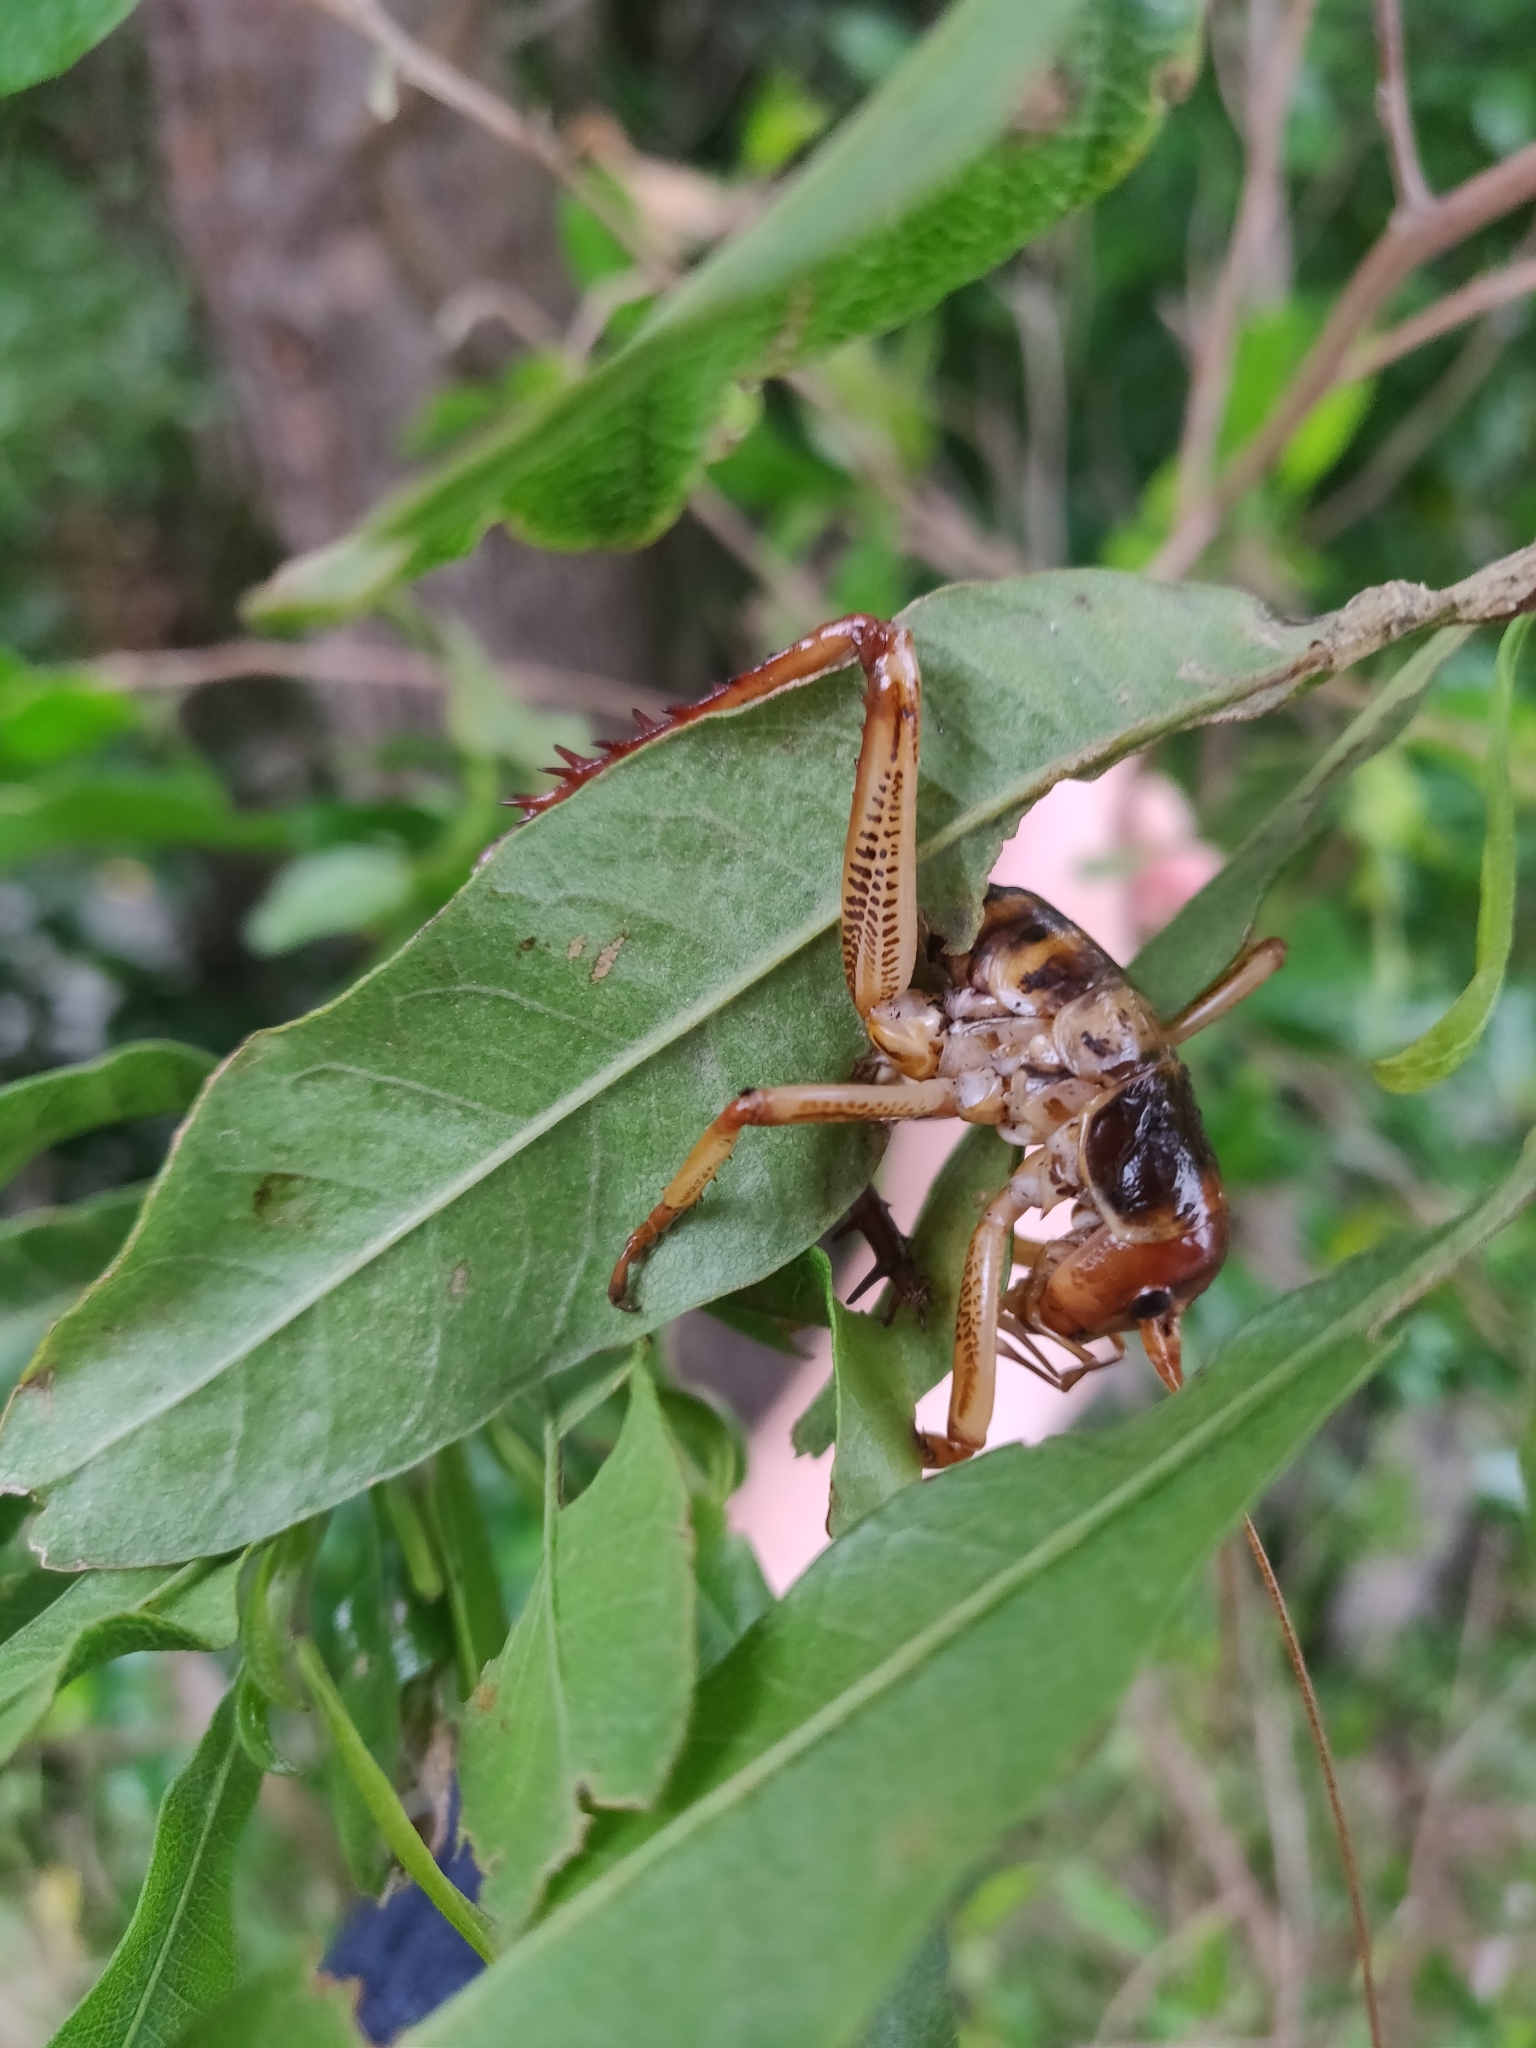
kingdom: Animalia
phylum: Arthropoda
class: Insecta
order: Orthoptera
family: Anostostomatidae
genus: Hemideina
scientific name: Hemideina crassidens
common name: Wellington tree weta
